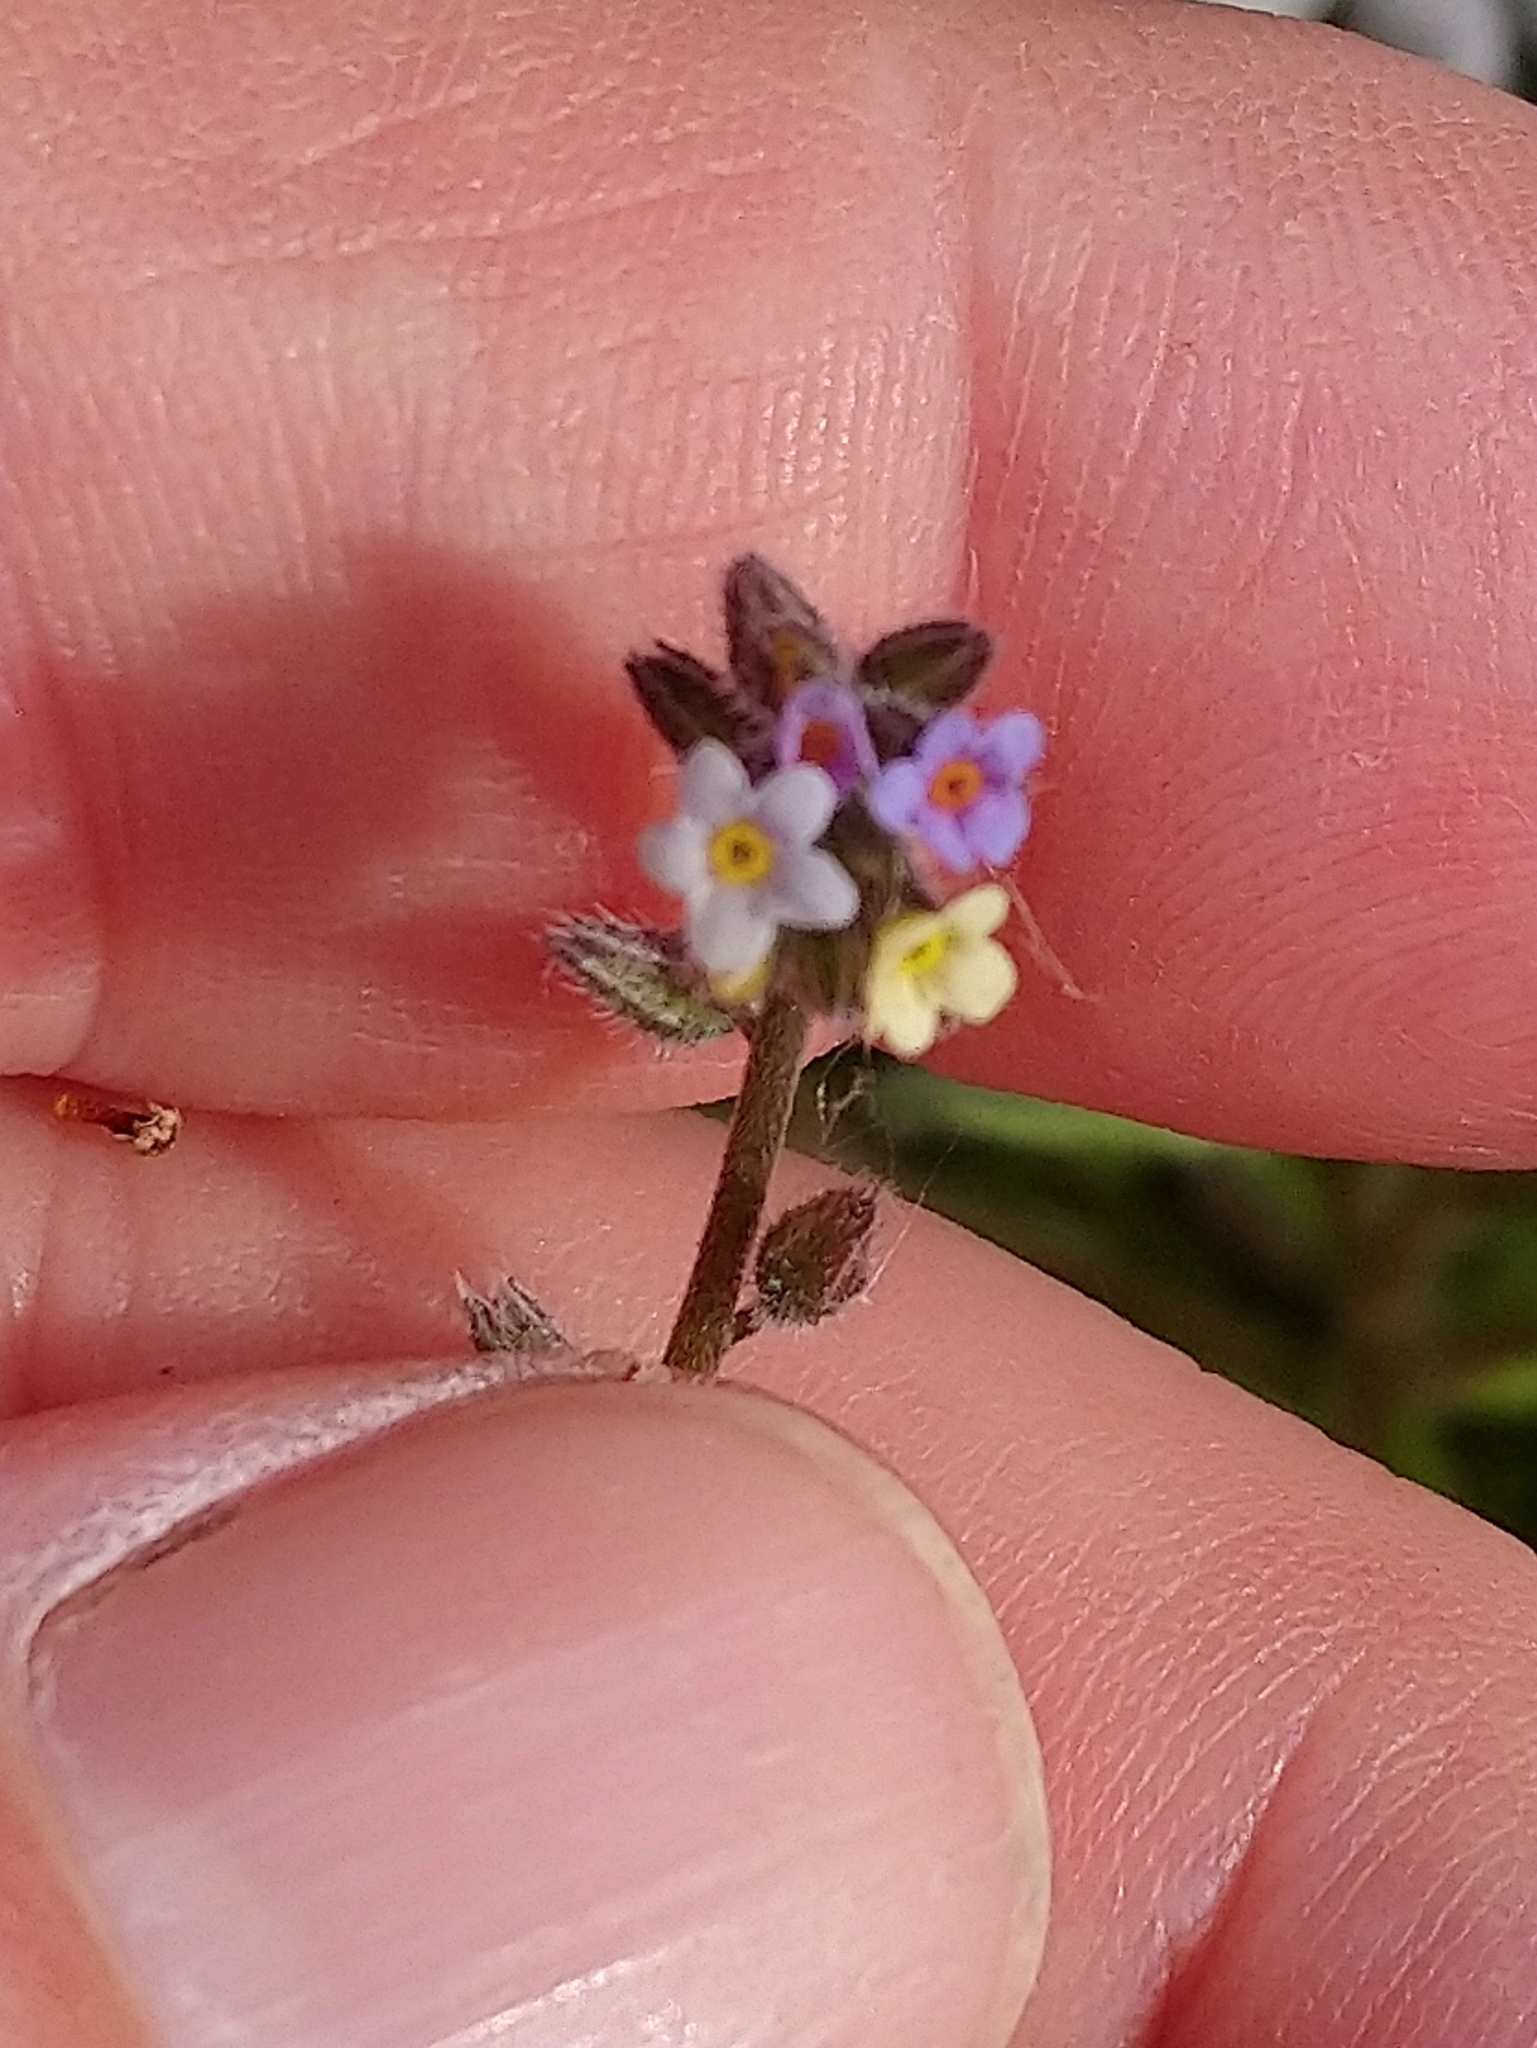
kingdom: Plantae
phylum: Tracheophyta
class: Magnoliopsida
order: Boraginales
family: Boraginaceae
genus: Myosotis
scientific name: Myosotis discolor
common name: Changing forget-me-not
